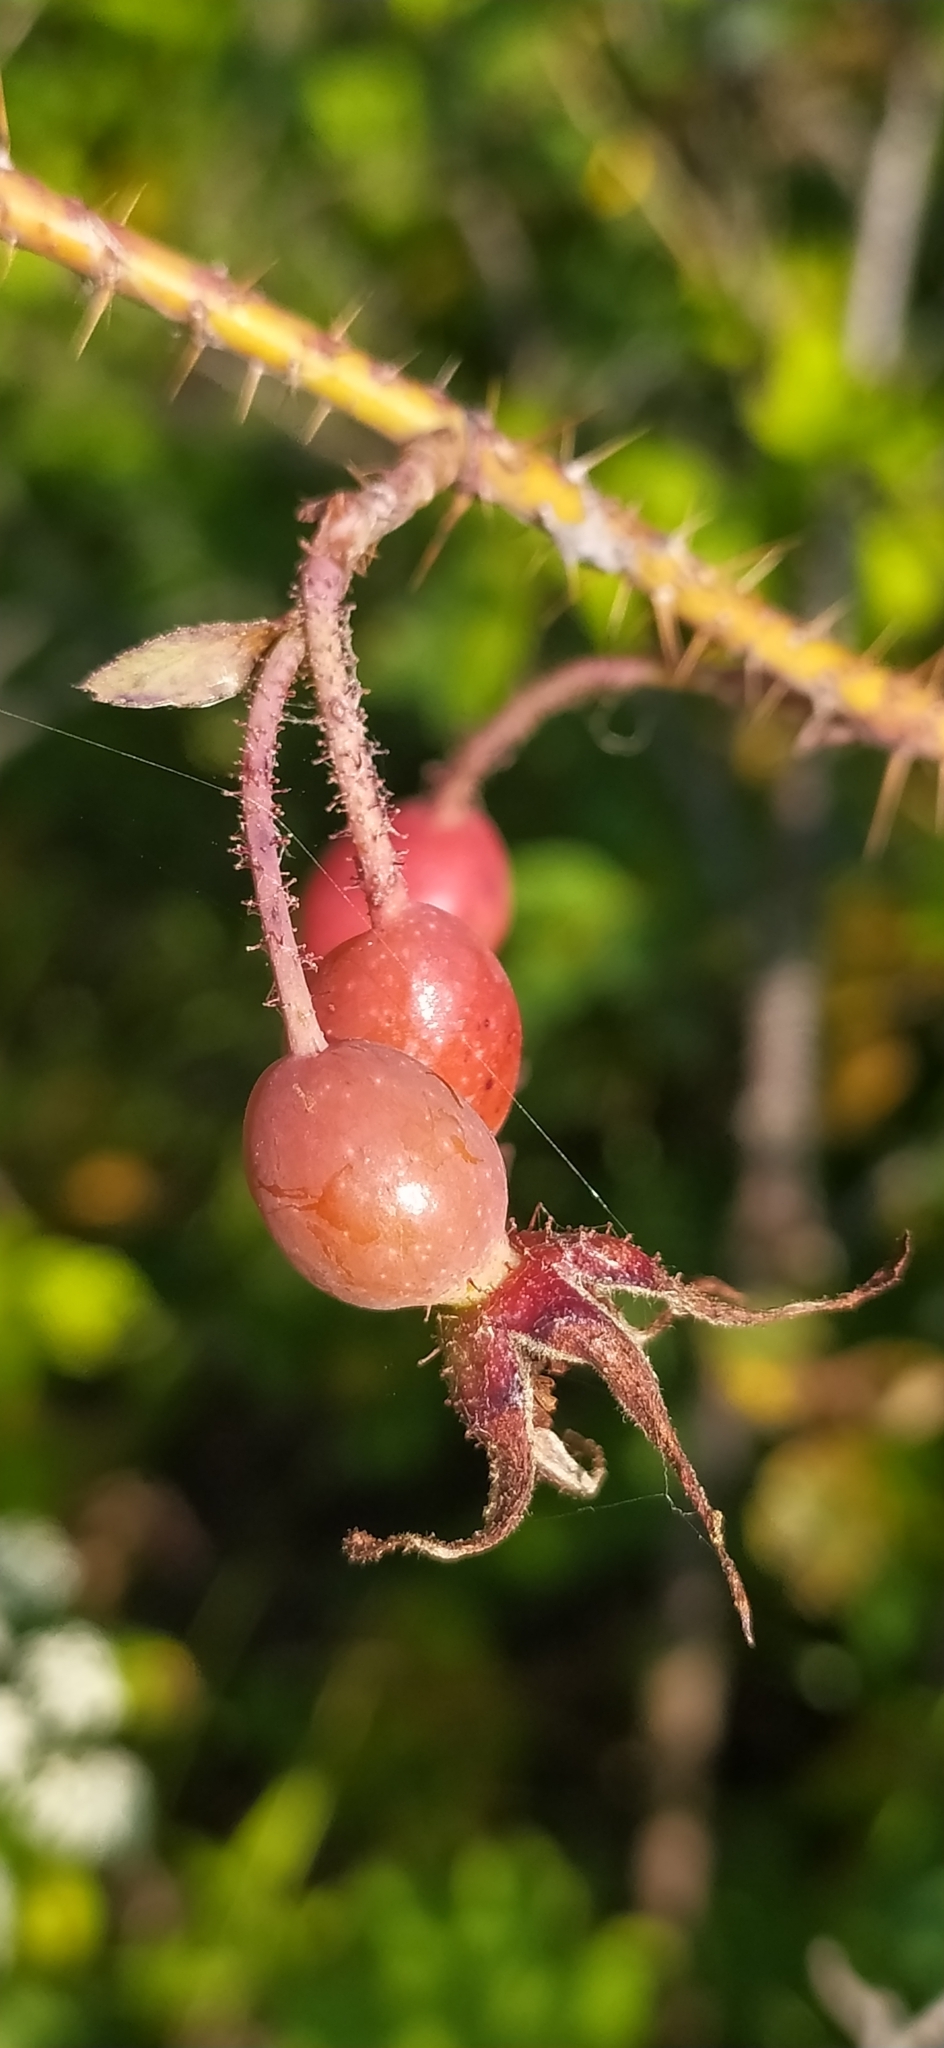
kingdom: Plantae
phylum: Tracheophyta
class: Magnoliopsida
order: Rosales
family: Rosaceae
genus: Rosa
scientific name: Rosa acicularis
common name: Prickly rose
